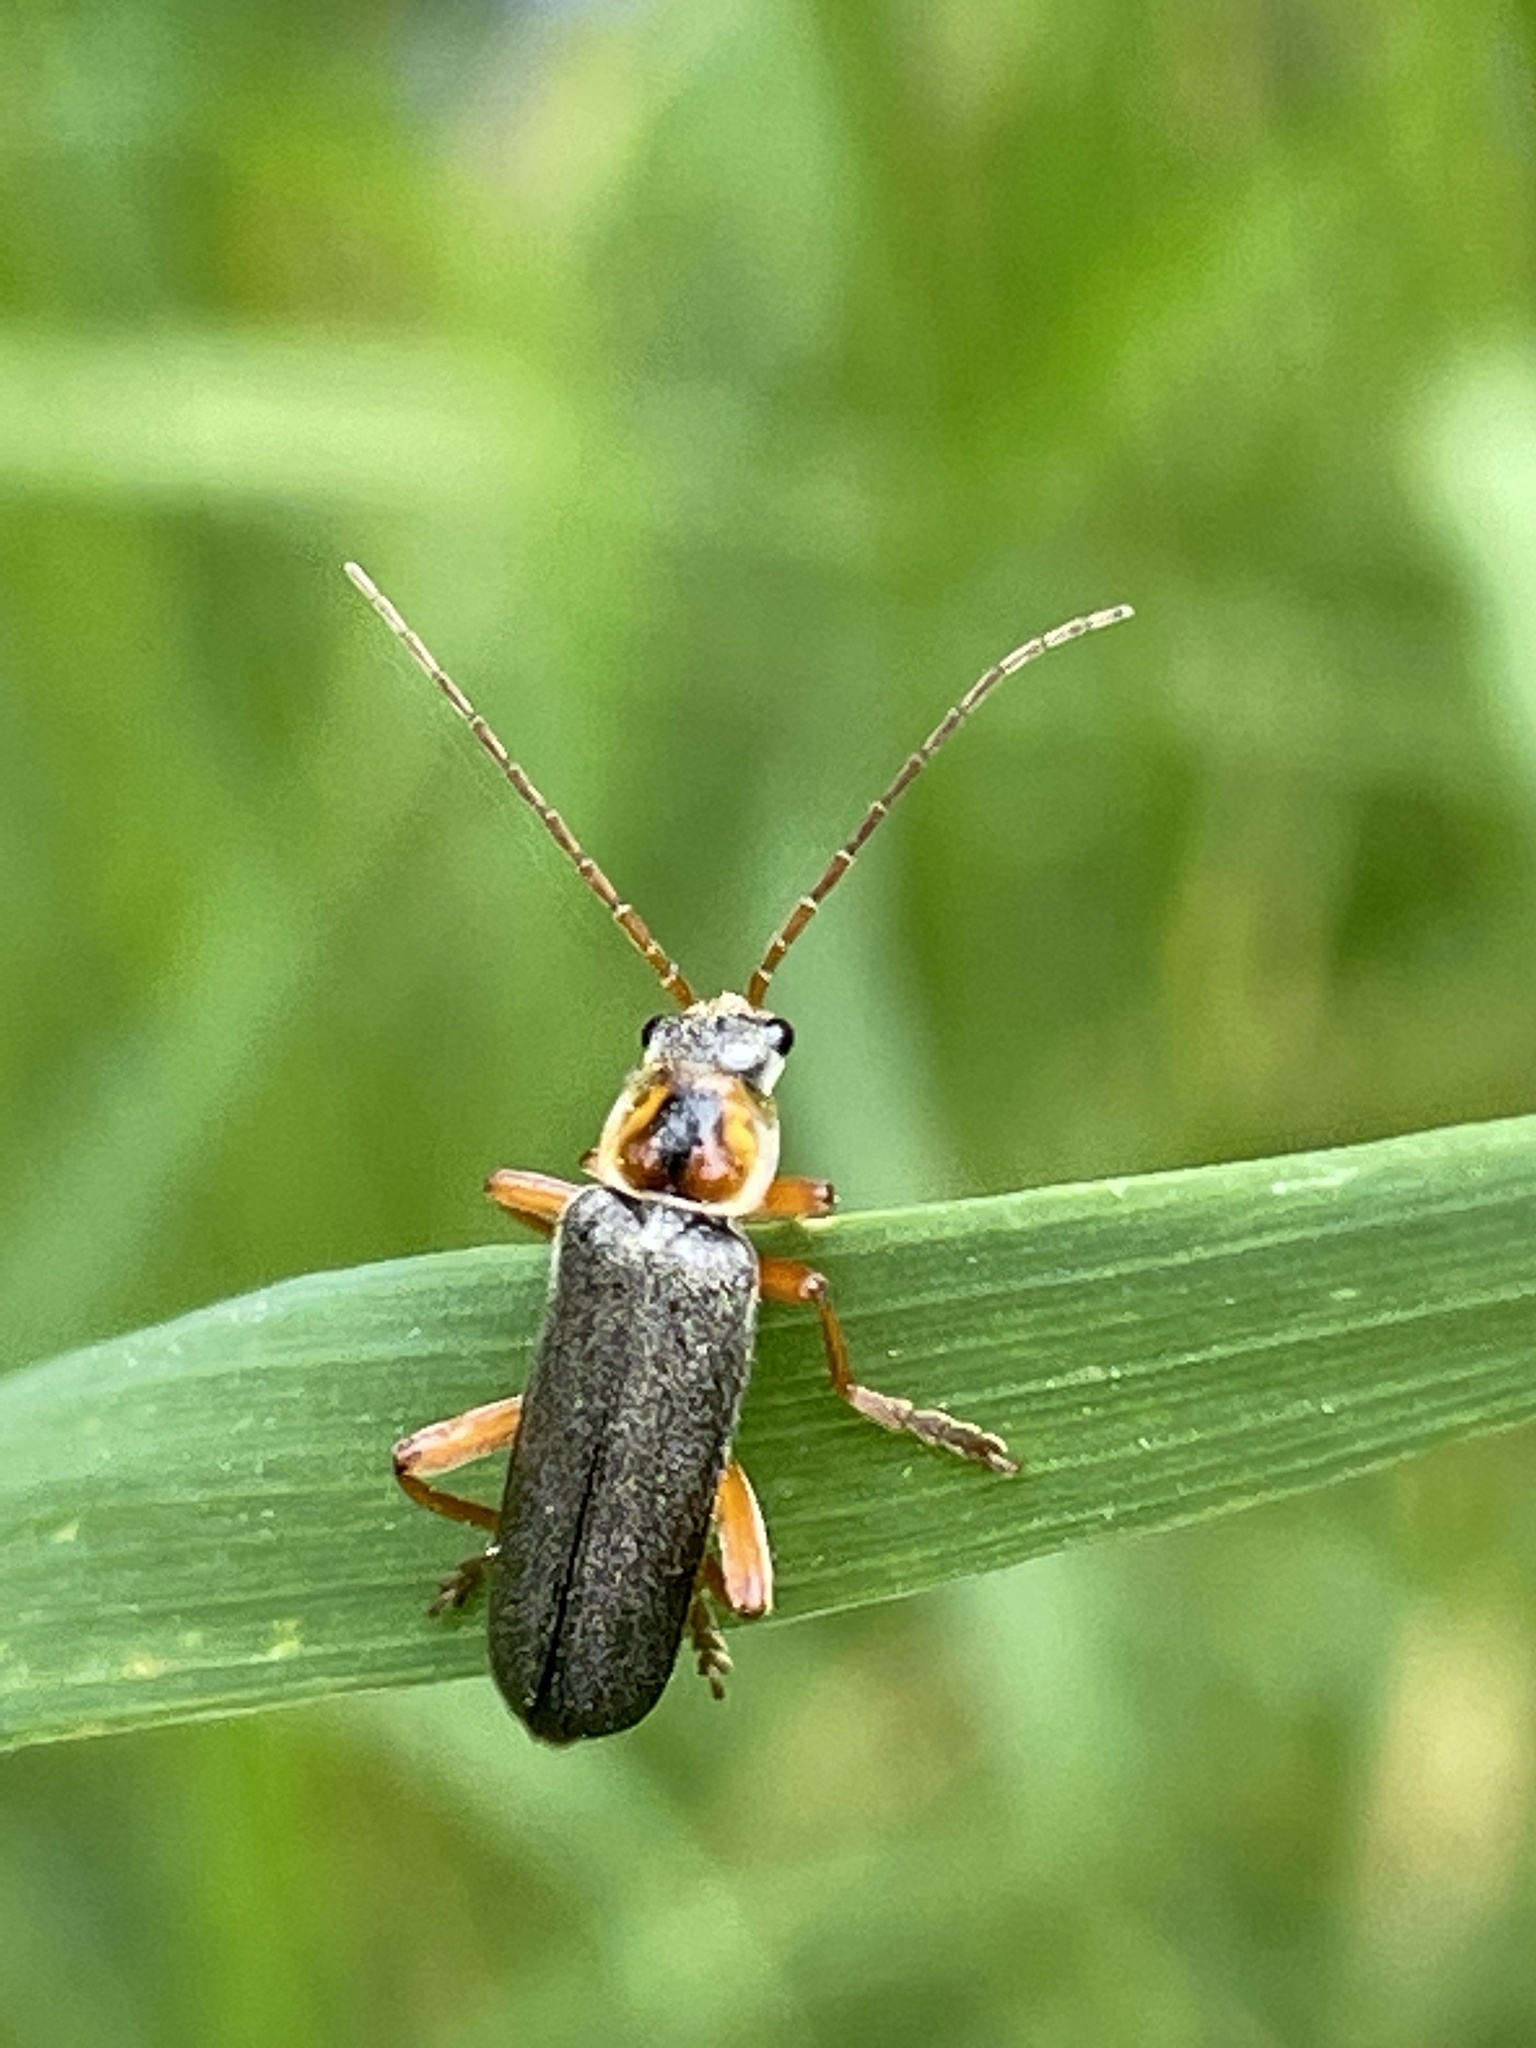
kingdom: Animalia
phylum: Arthropoda
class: Insecta
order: Coleoptera
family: Cantharidae
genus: Cantharis
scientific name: Cantharis nigricans
